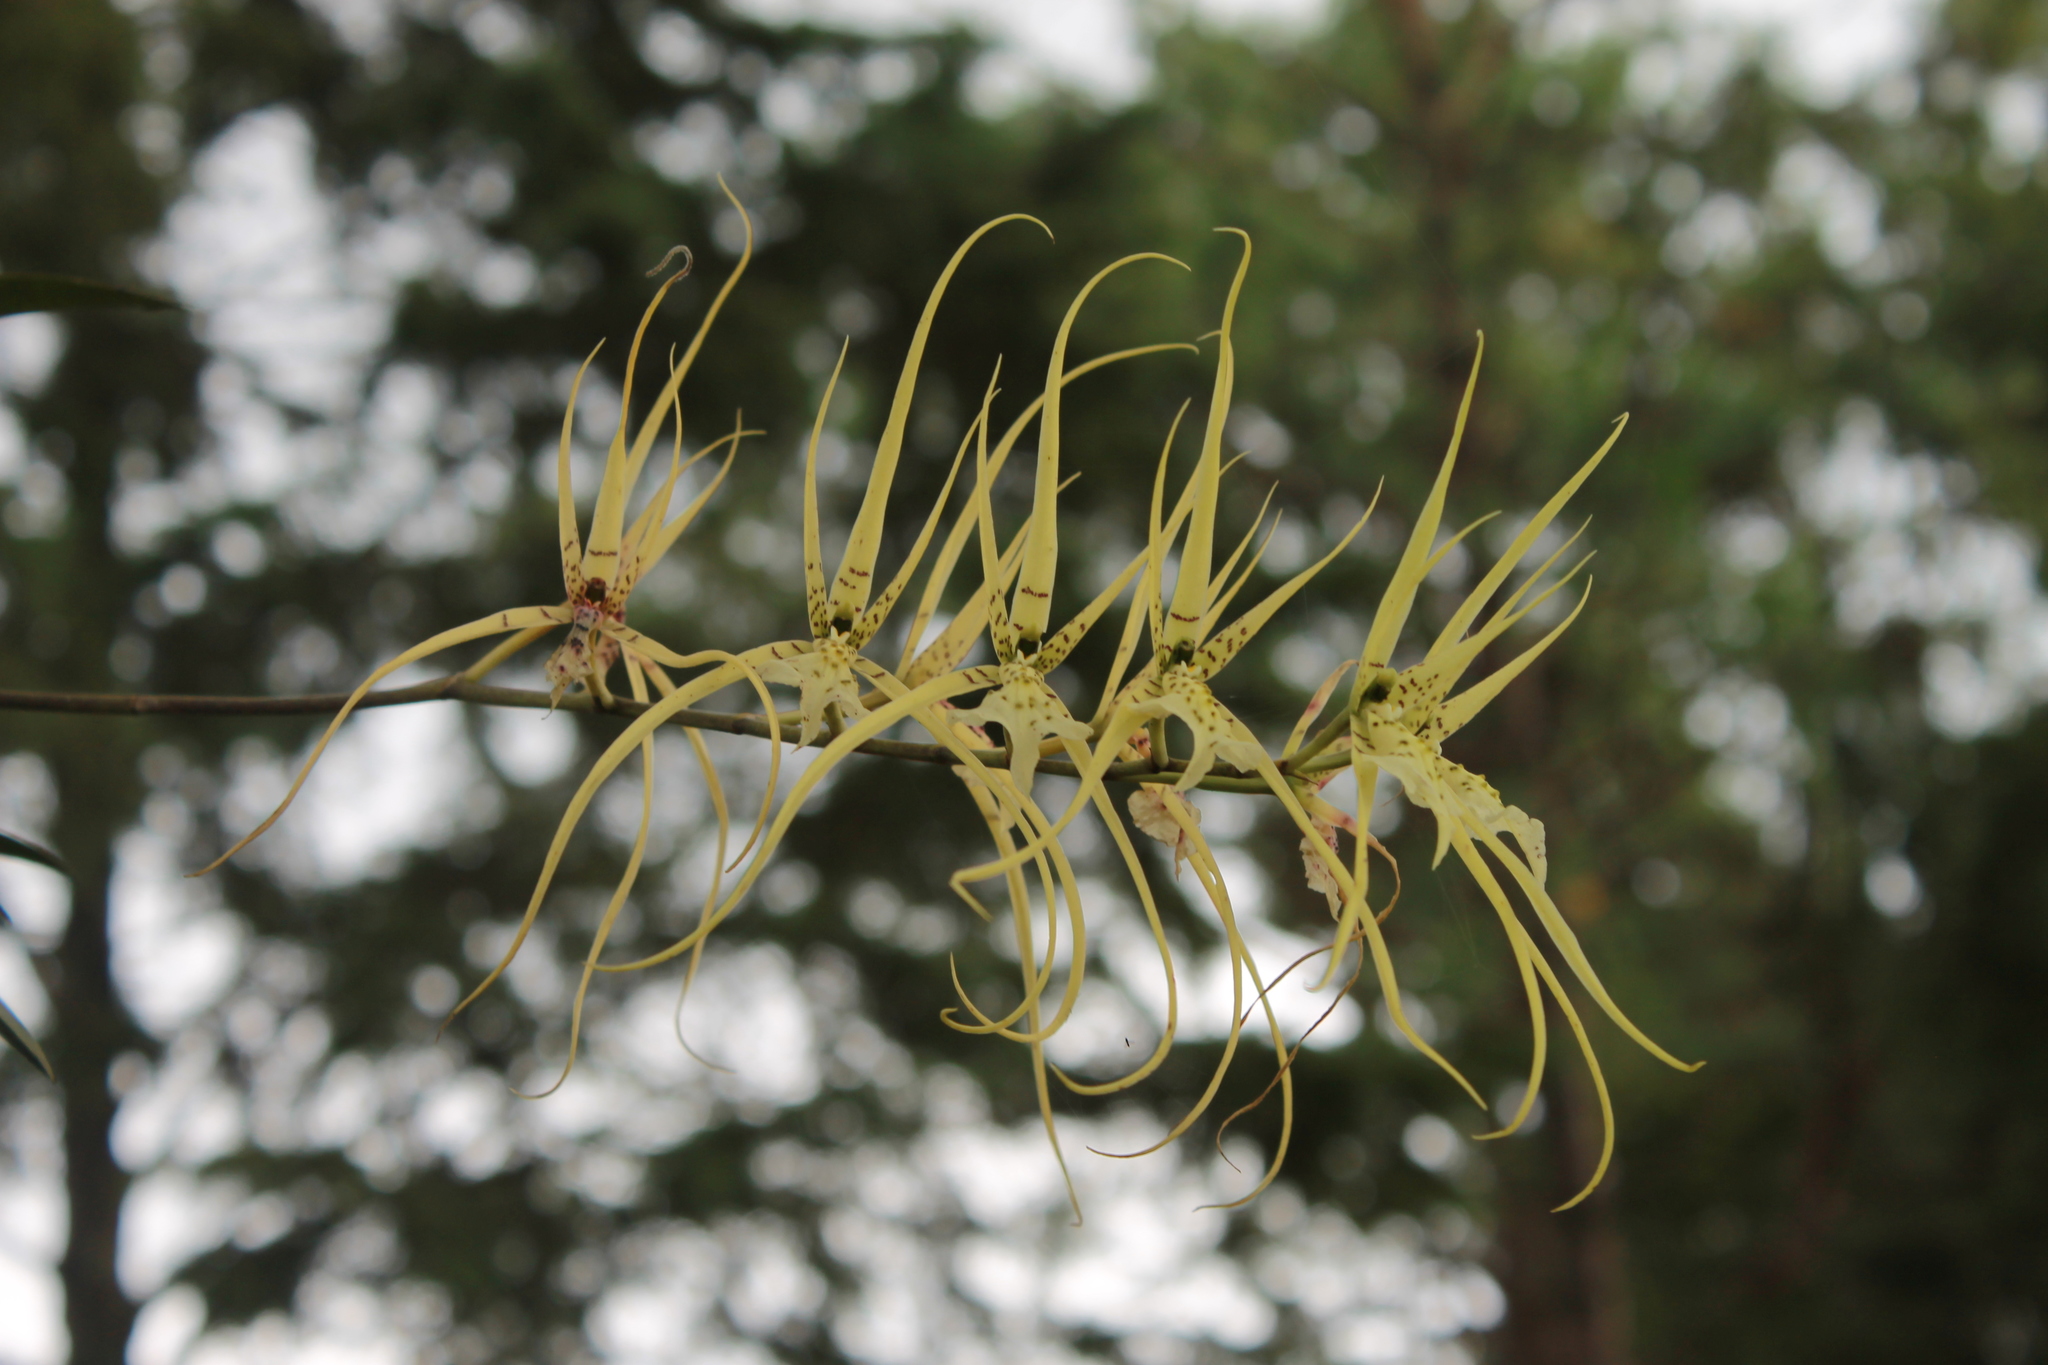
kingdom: Plantae
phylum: Tracheophyta
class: Liliopsida
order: Asparagales
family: Orchidaceae
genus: Brassia
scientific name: Brassia verrucosa
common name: Warty brassia
